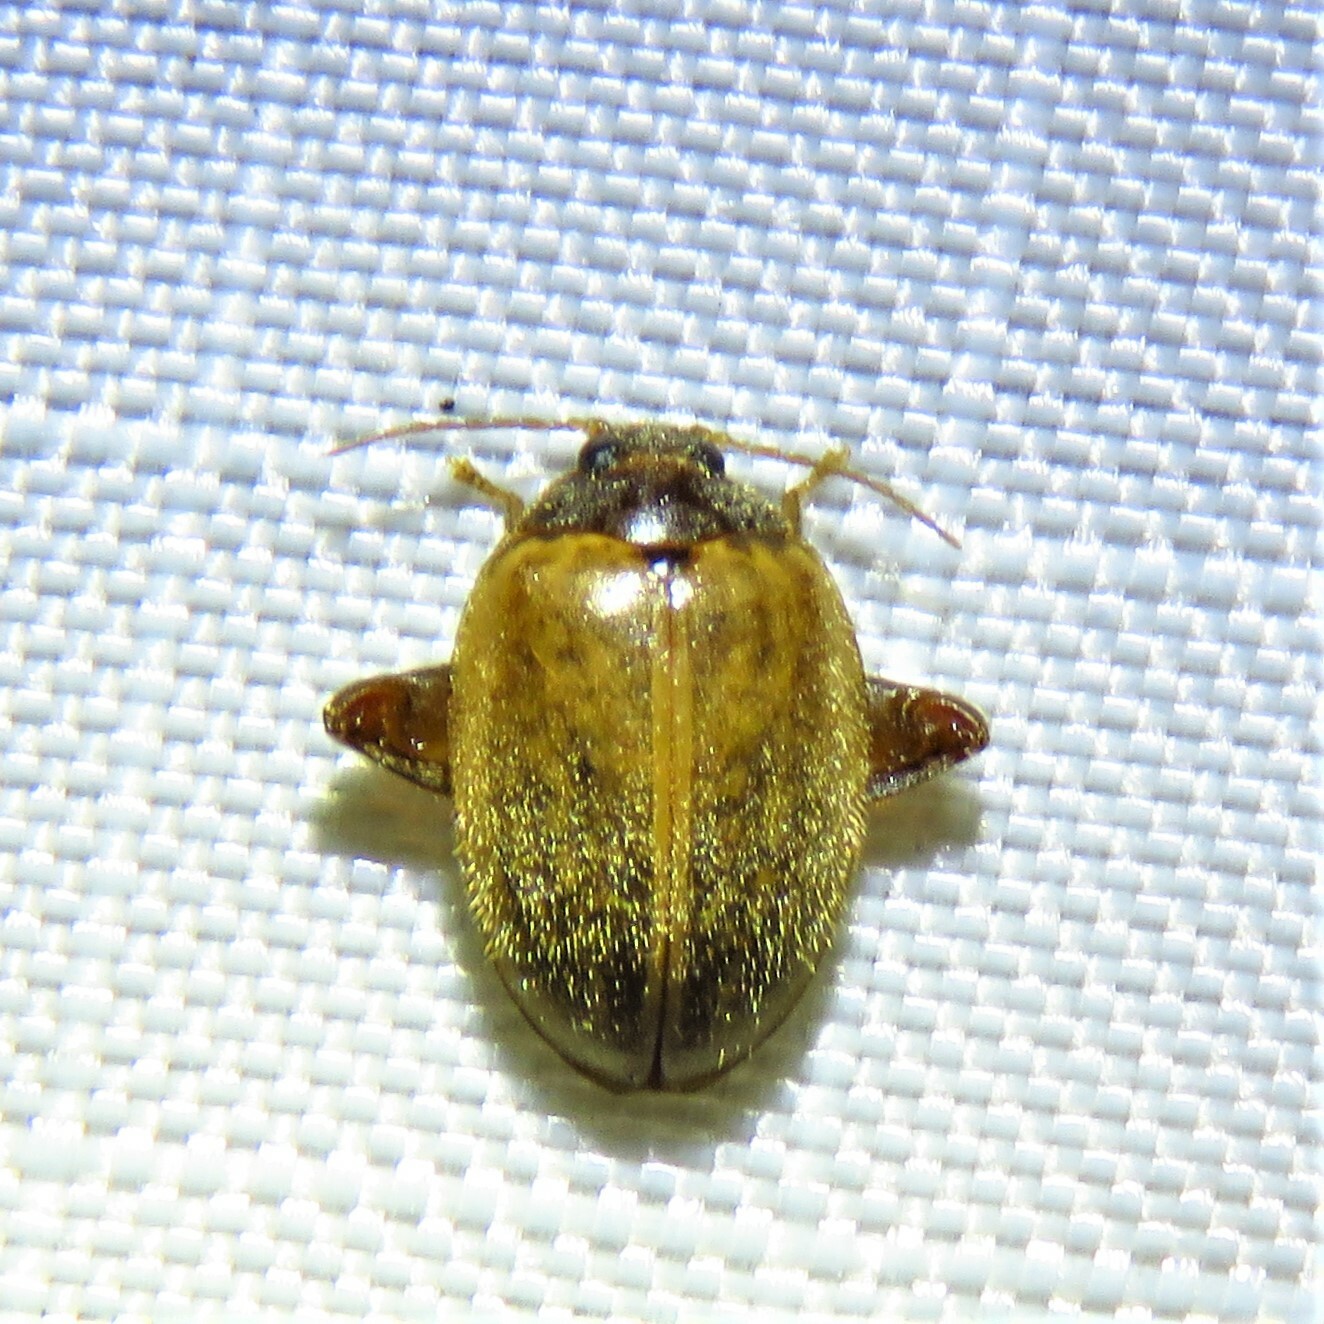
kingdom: Animalia
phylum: Arthropoda
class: Insecta
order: Coleoptera
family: Scirtidae
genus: Ora
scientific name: Ora discoidea
